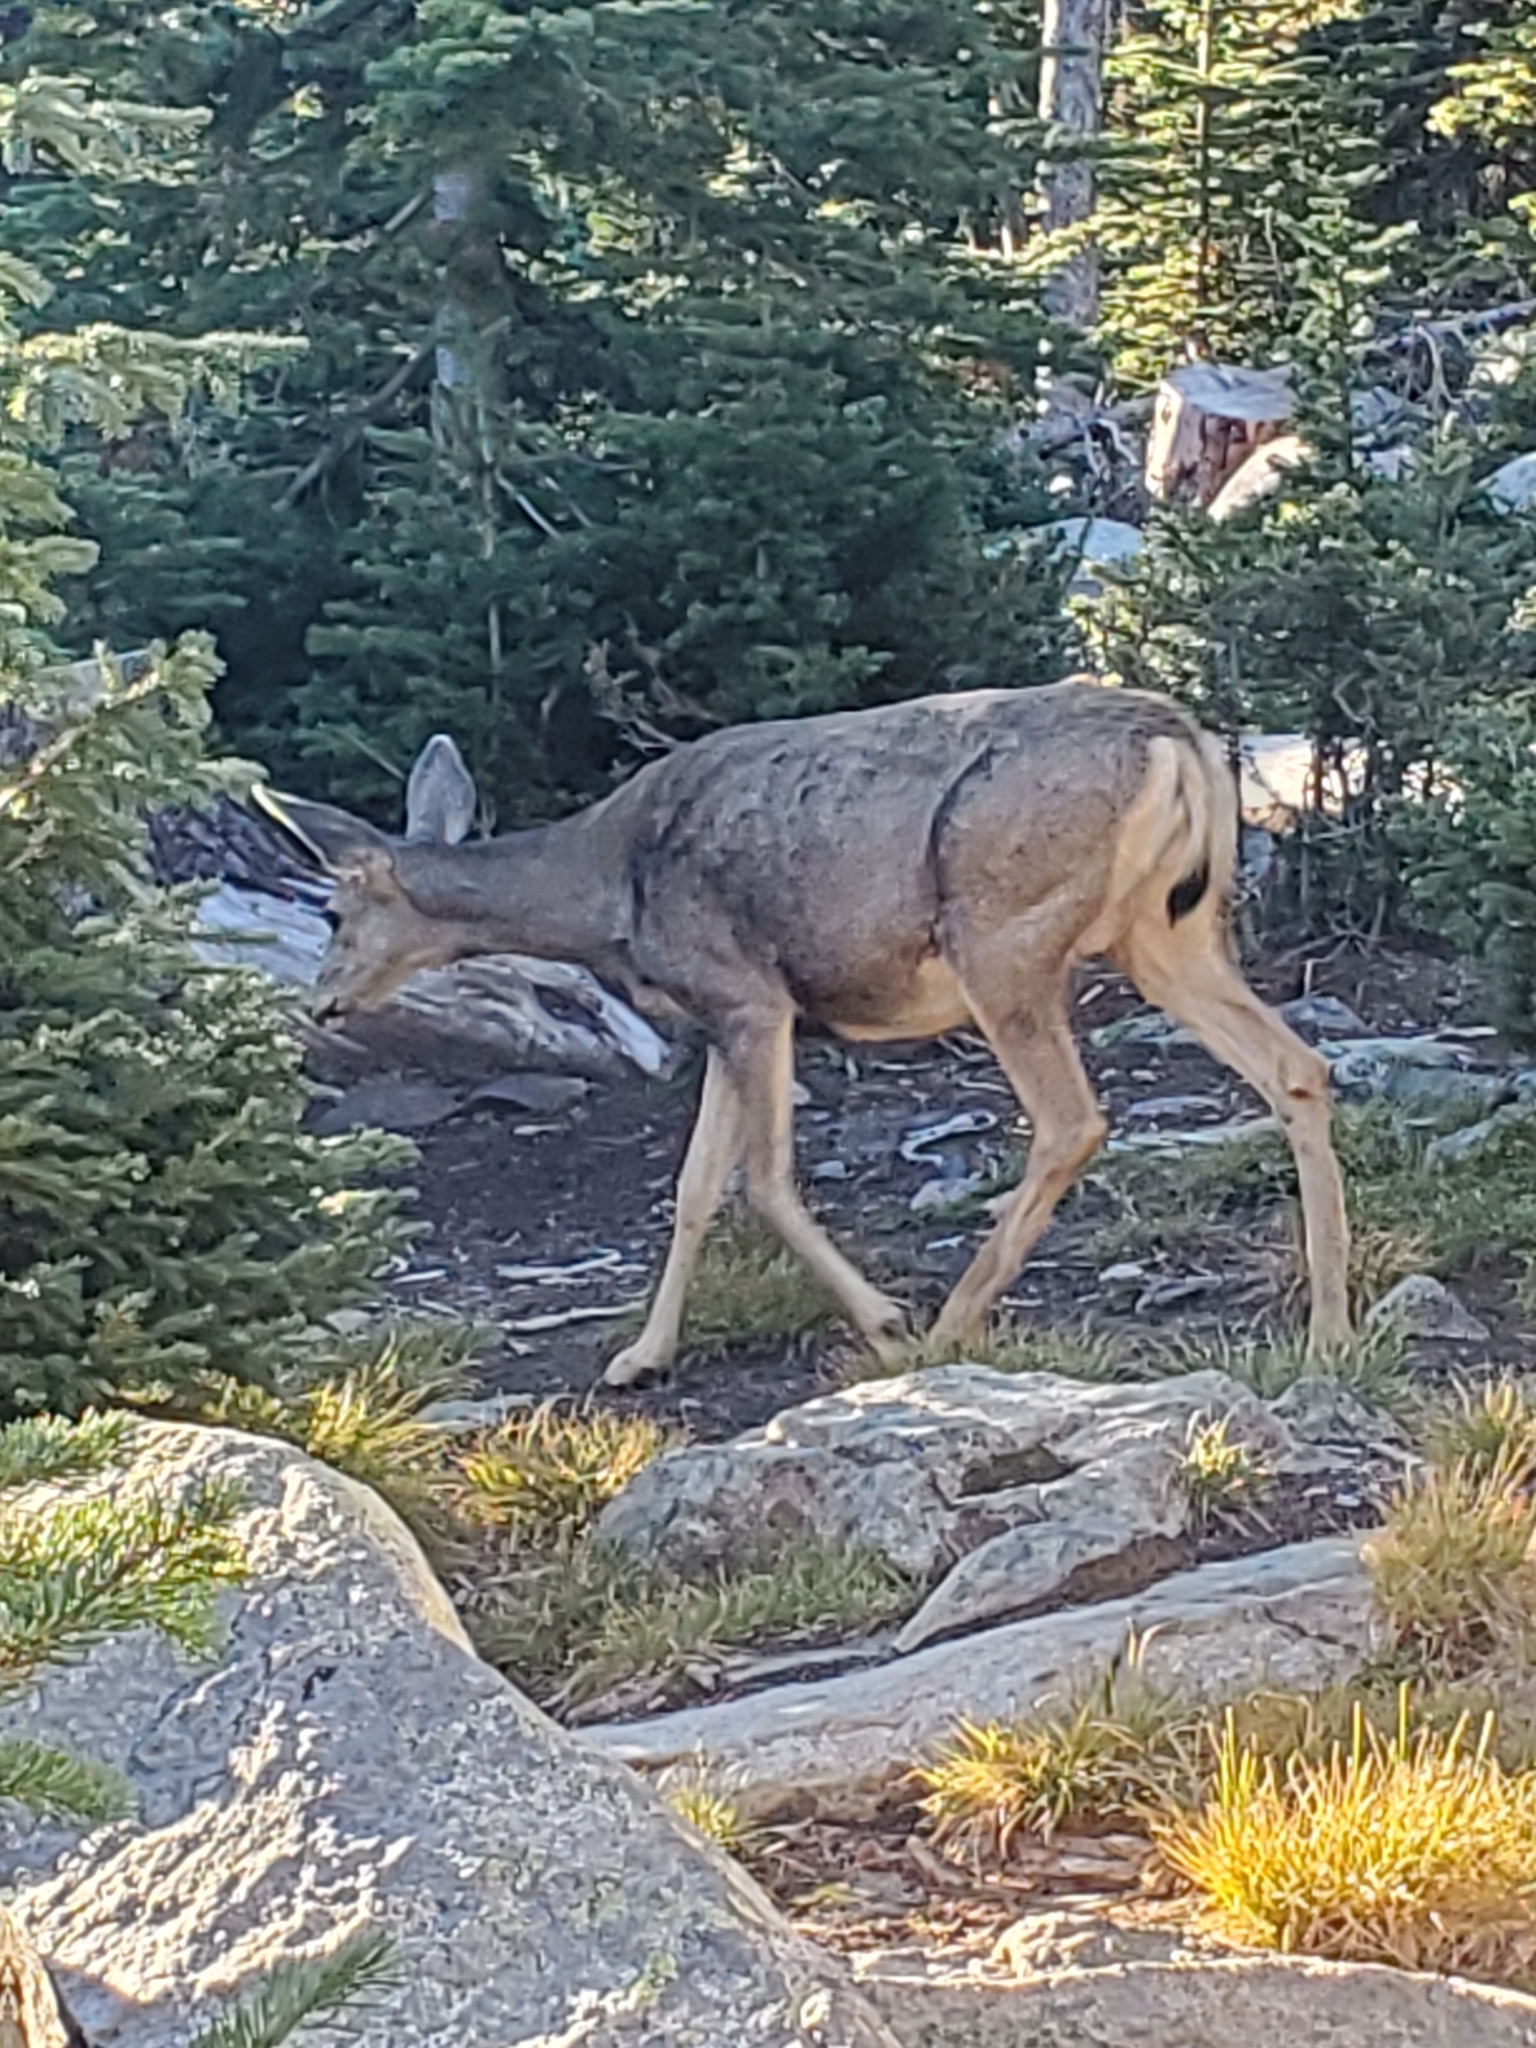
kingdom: Animalia
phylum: Chordata
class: Mammalia
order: Artiodactyla
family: Cervidae
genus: Odocoileus
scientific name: Odocoileus hemionus
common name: Mule deer
